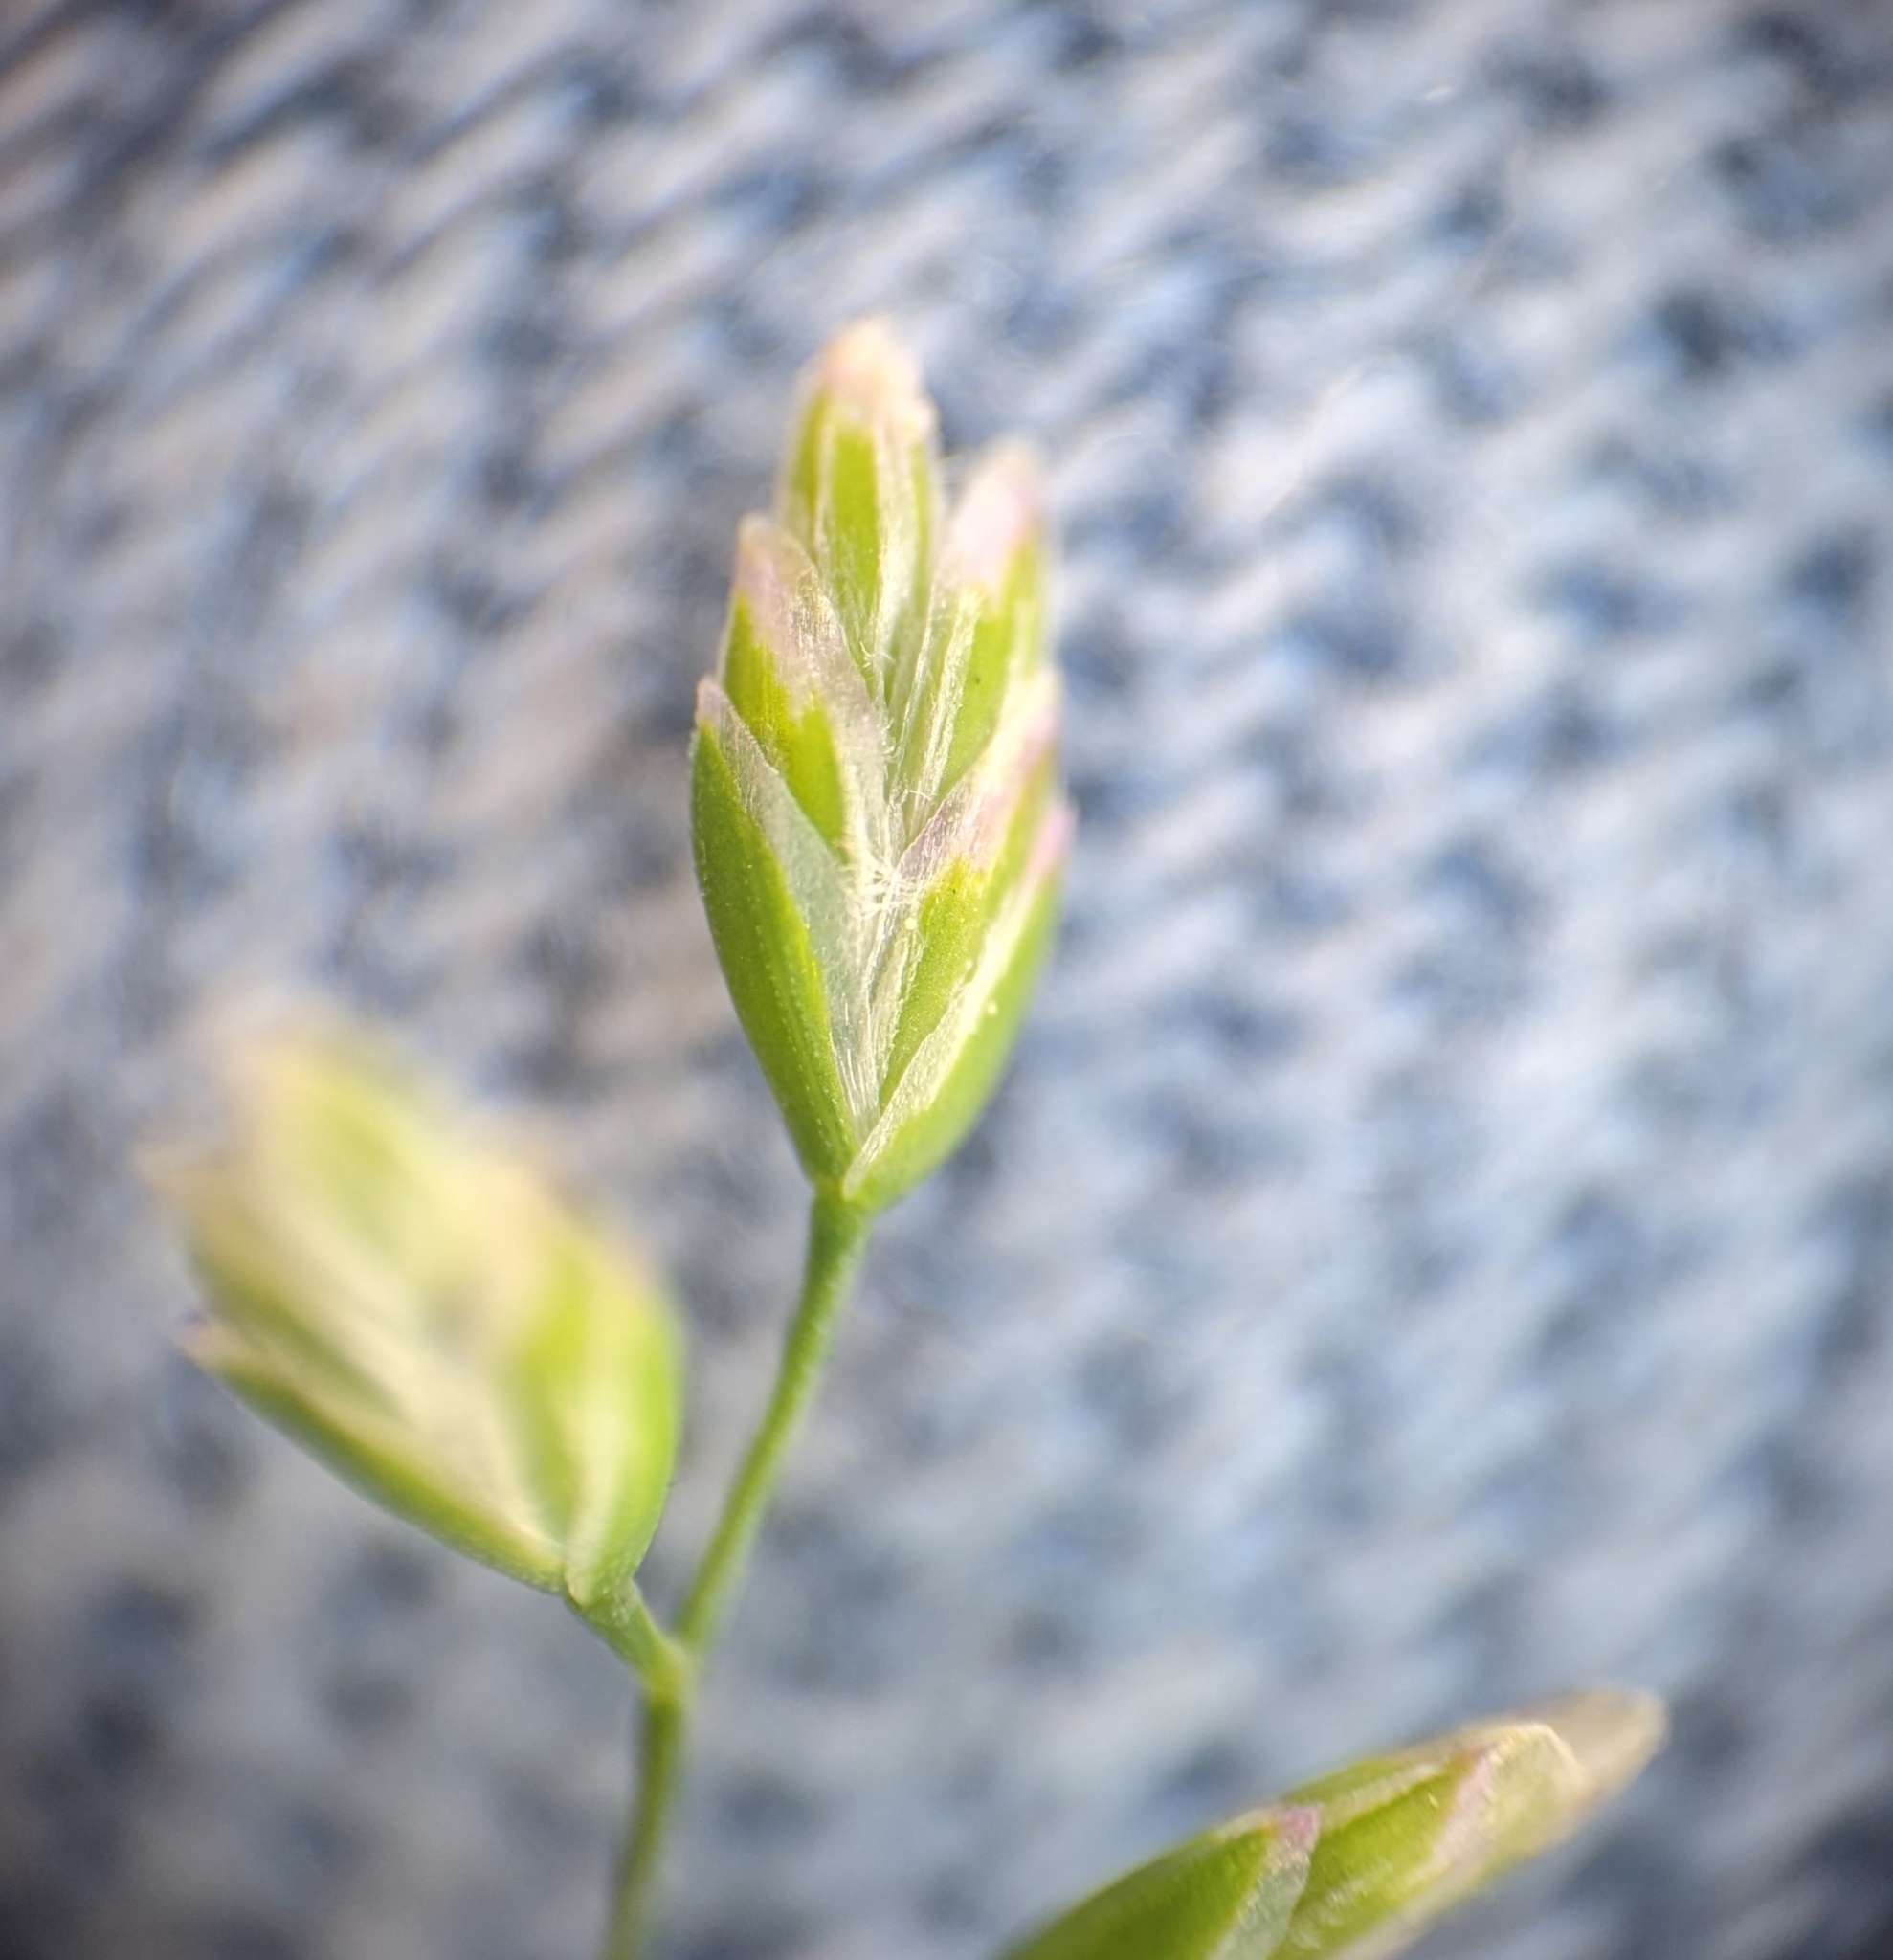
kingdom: Plantae
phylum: Tracheophyta
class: Liliopsida
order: Poales
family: Poaceae
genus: Poa
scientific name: Poa annua
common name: Annual bluegrass
